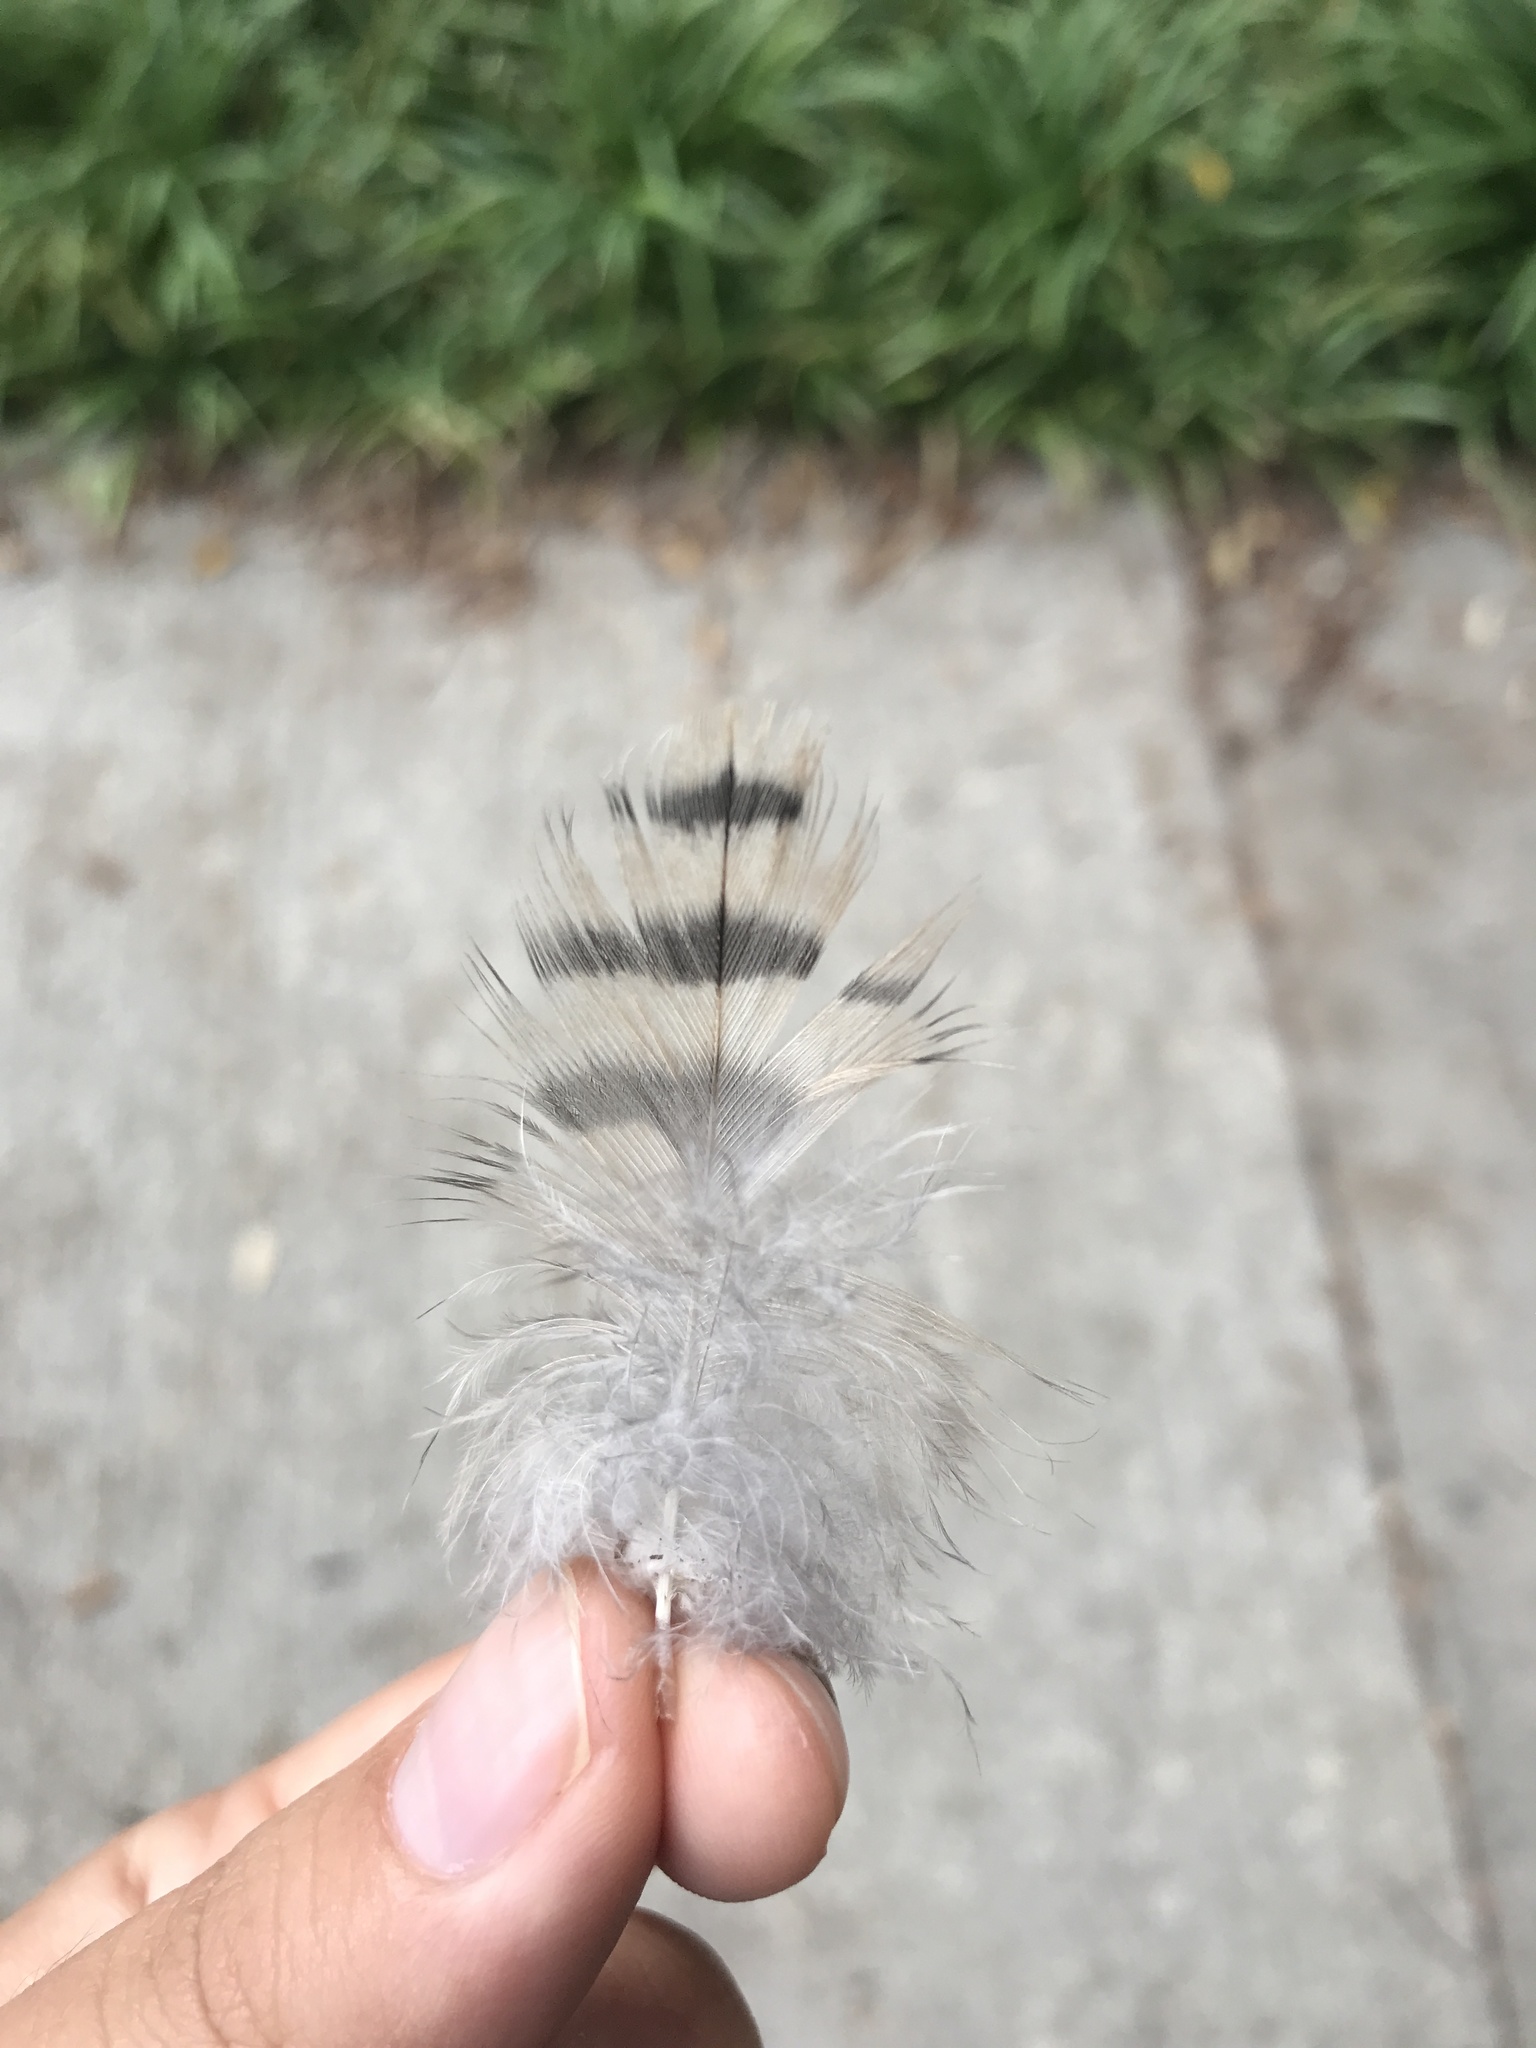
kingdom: Animalia
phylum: Chordata
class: Aves
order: Falconiformes
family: Falconidae
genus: Falco
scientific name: Falco peregrinus
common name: Peregrine falcon
